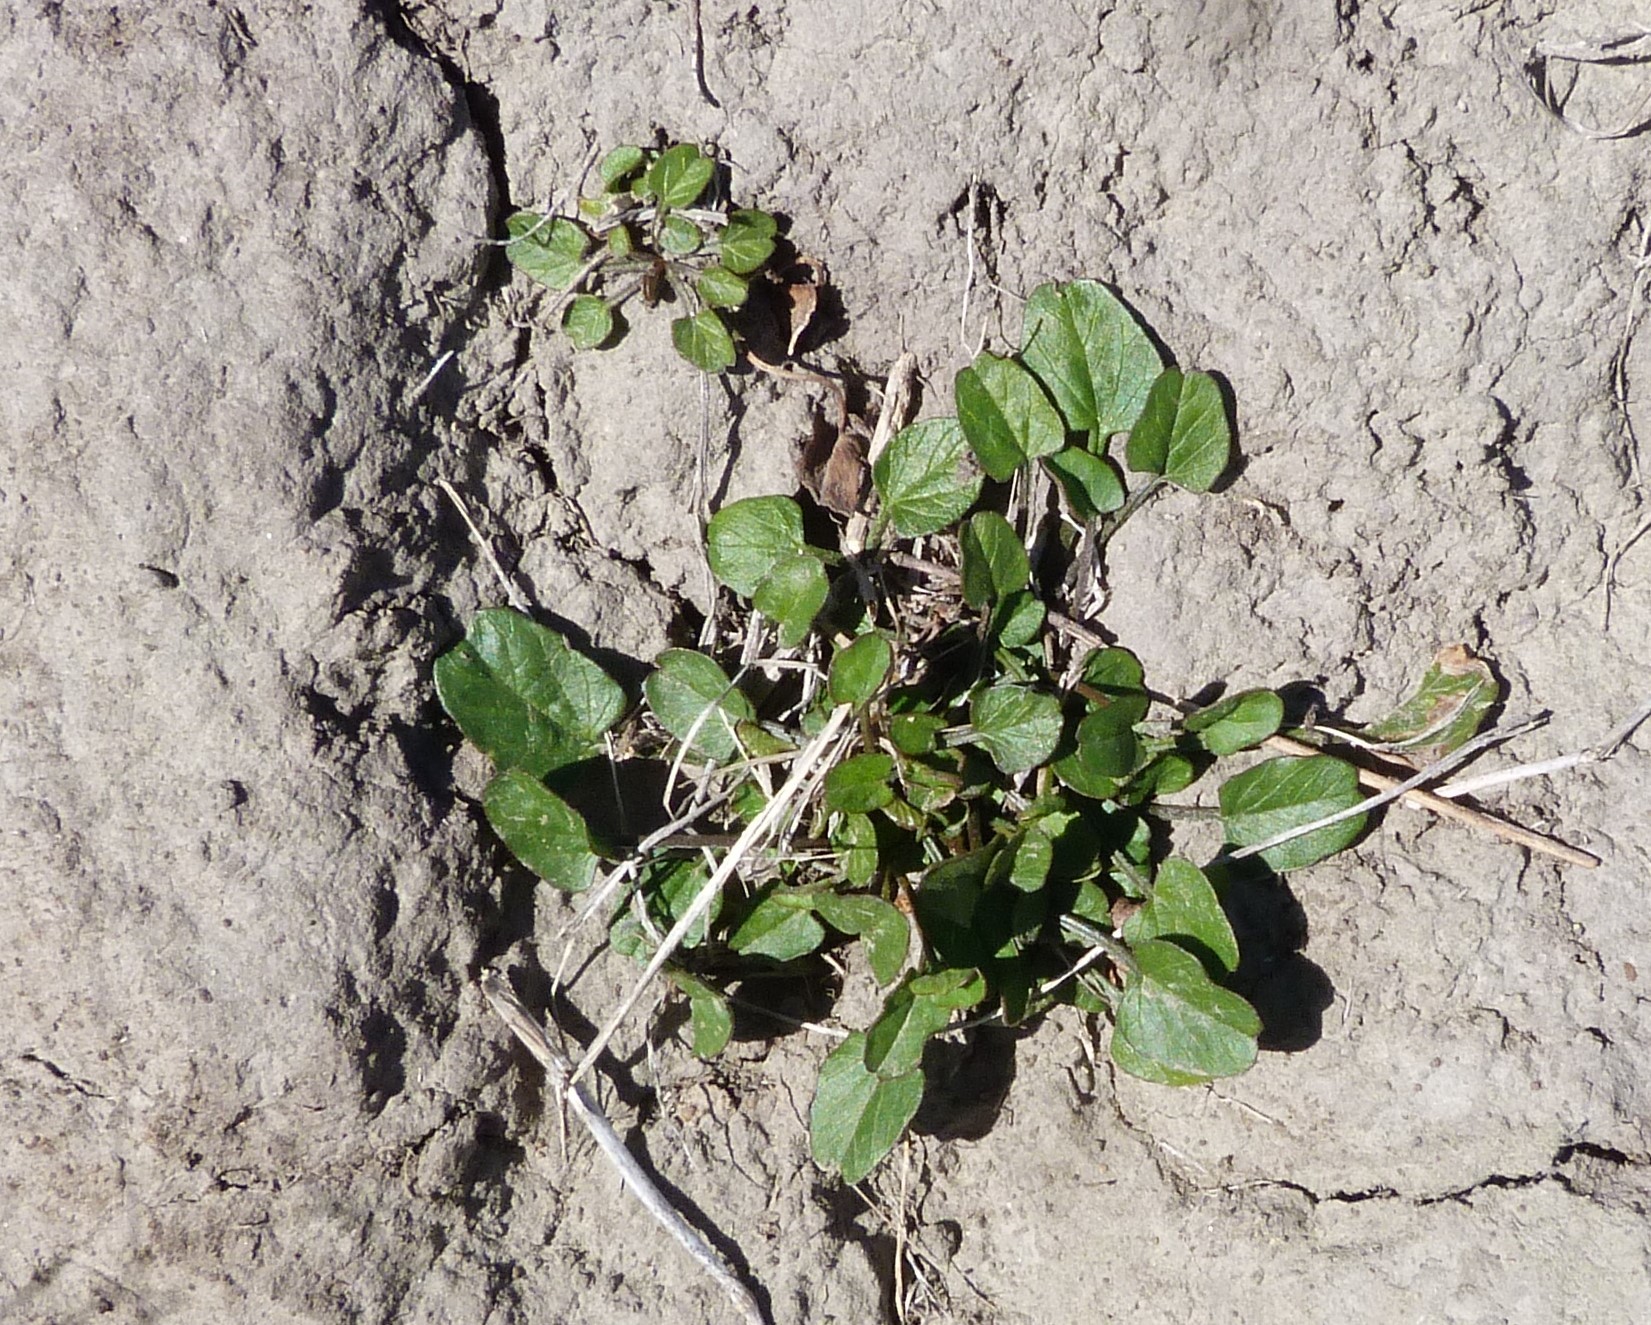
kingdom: Plantae
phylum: Tracheophyta
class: Magnoliopsida
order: Solanales
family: Convolvulaceae
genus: Convolvulus
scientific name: Convolvulus waitaha
